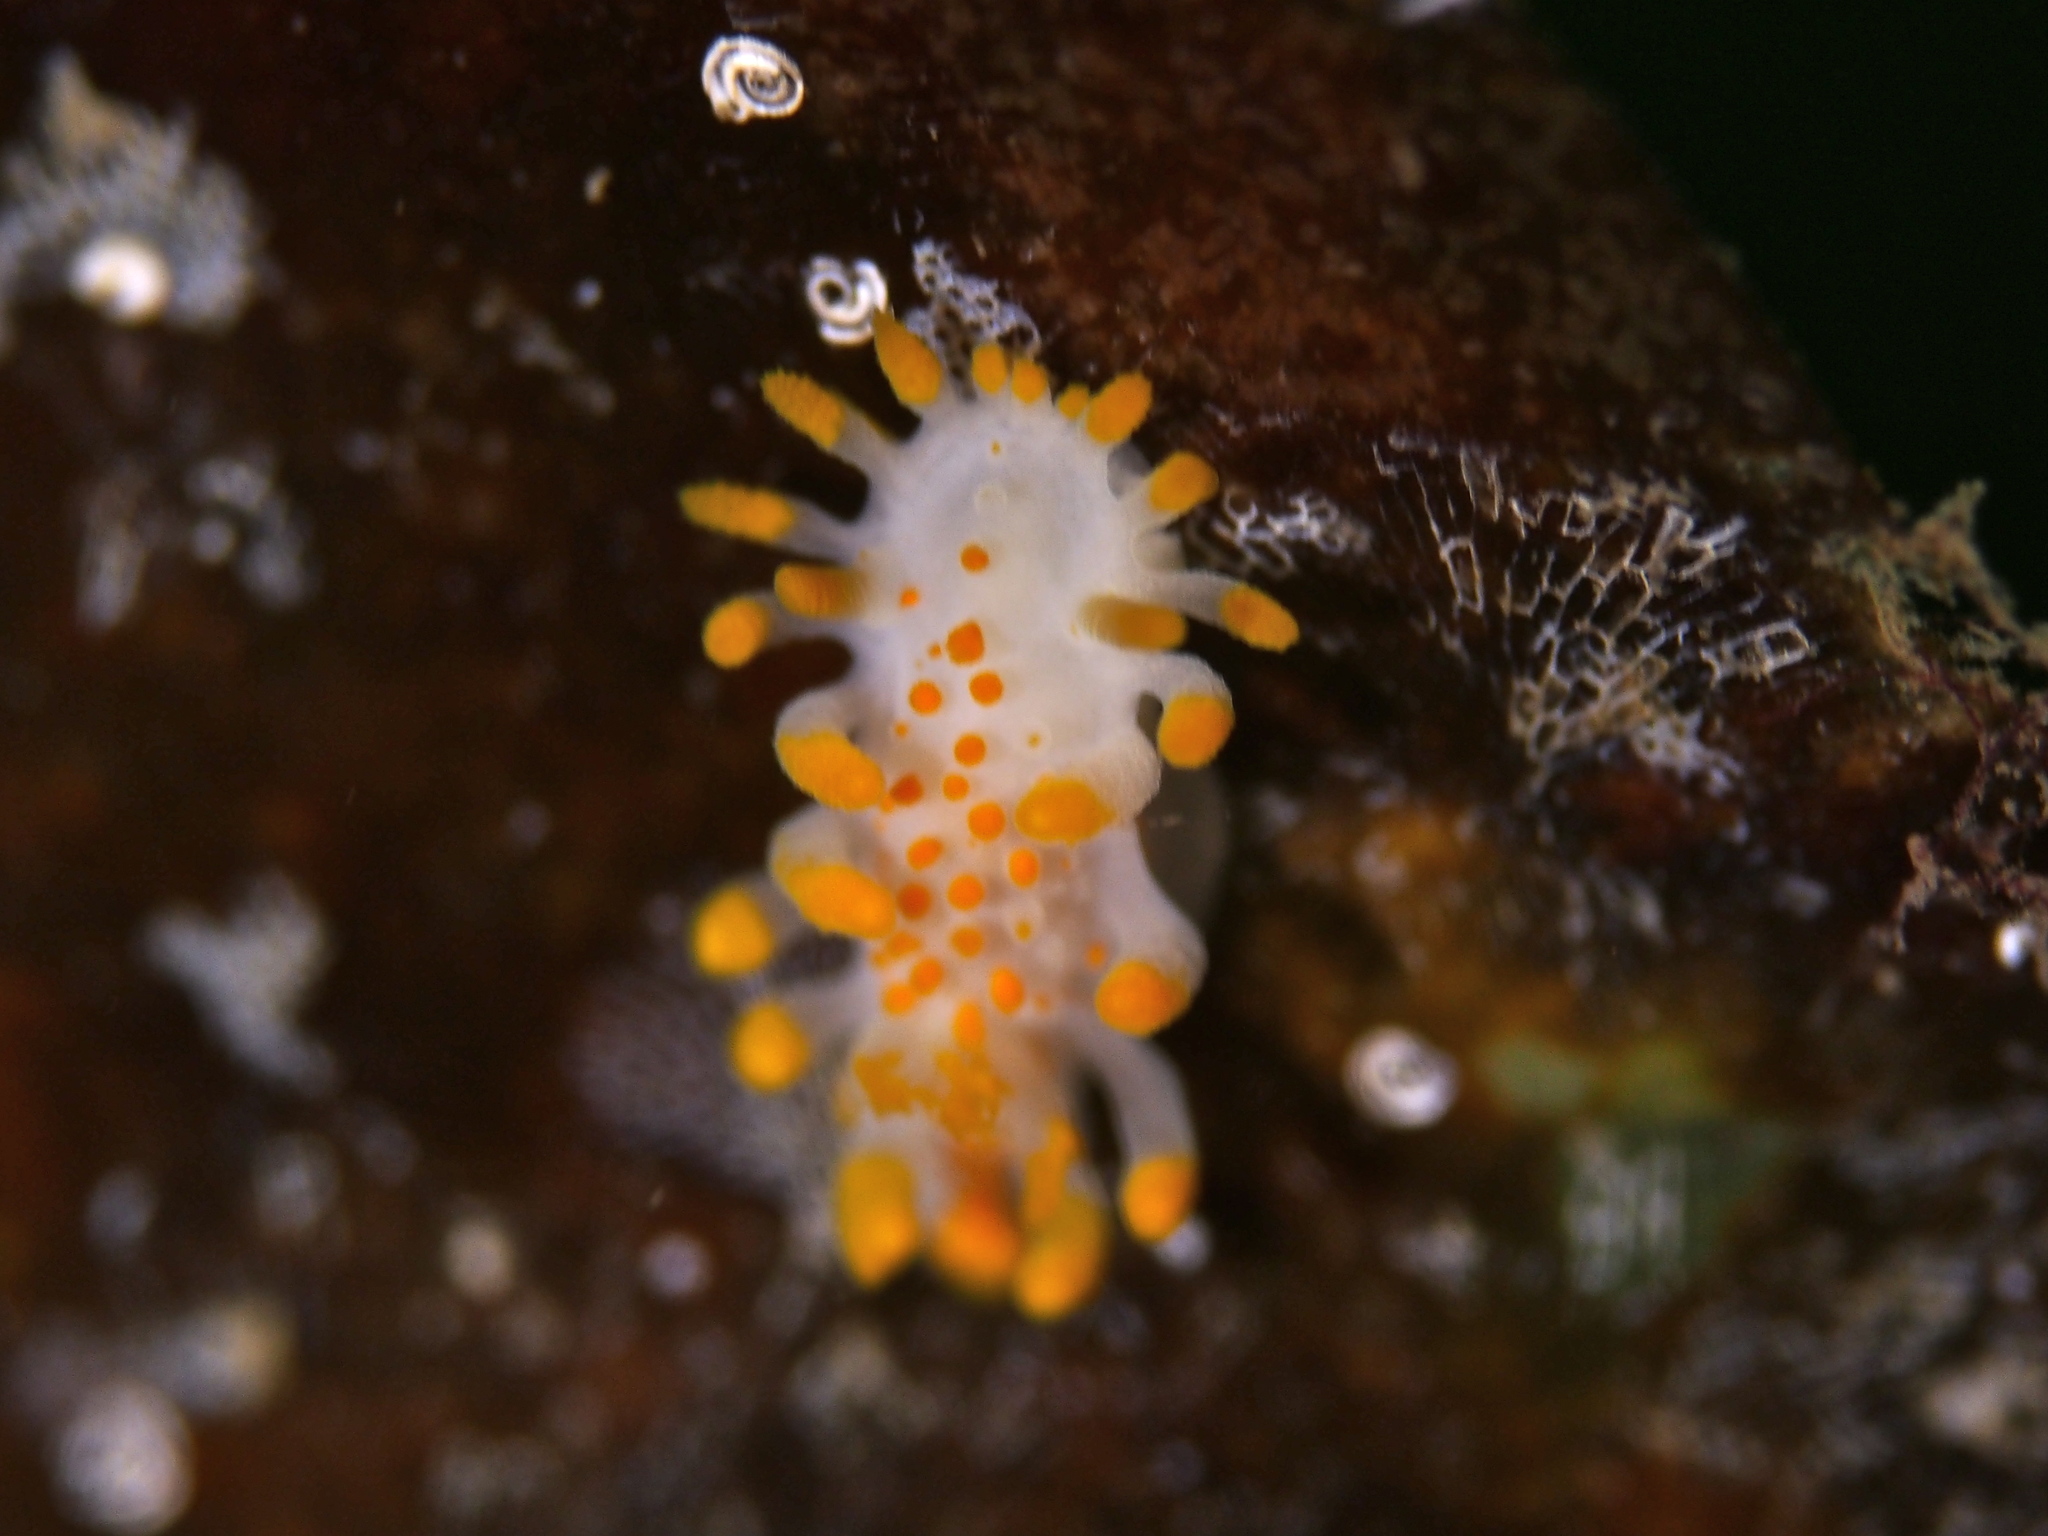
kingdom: Animalia
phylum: Mollusca
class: Gastropoda
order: Nudibranchia
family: Polyceridae
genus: Limacia
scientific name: Limacia clavigera
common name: Orange-clubbed sea slug
